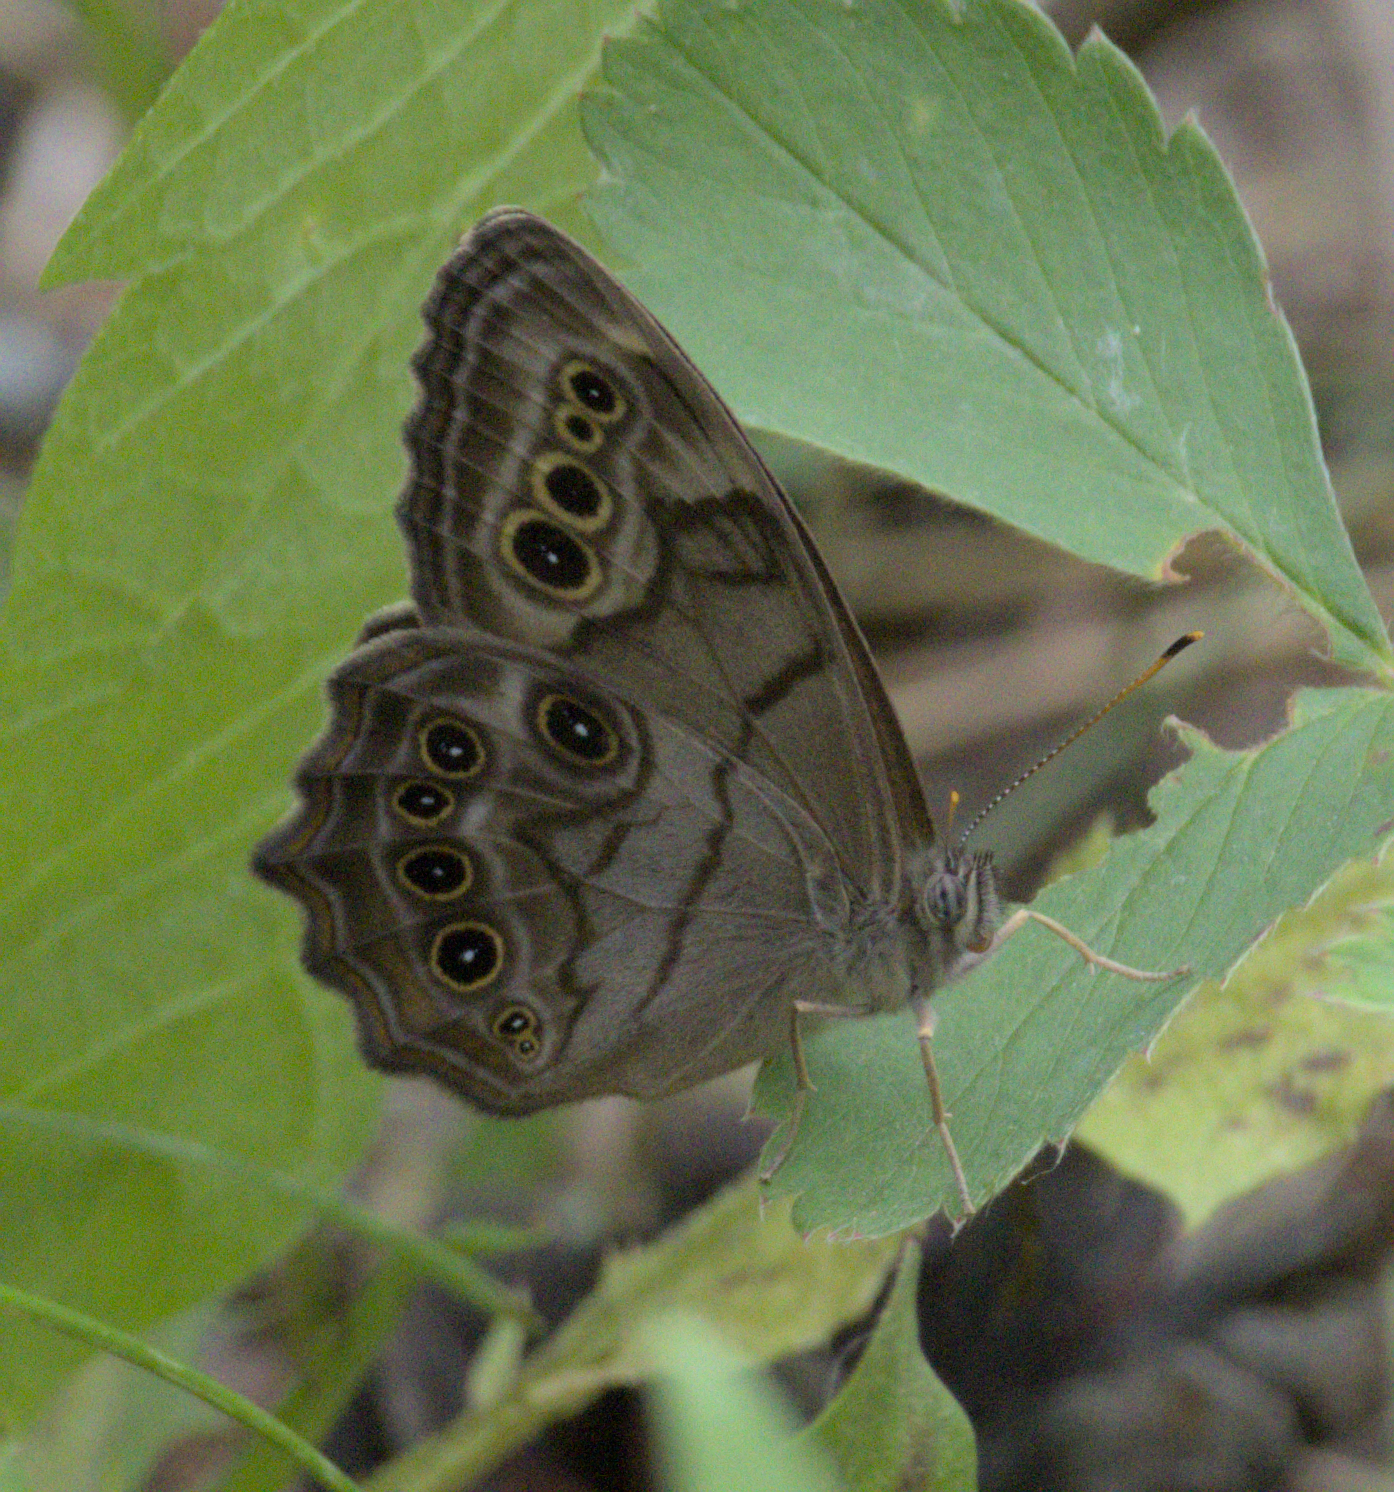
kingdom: Animalia
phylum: Arthropoda
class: Insecta
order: Lepidoptera
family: Nymphalidae
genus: Lethe
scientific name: Lethe anthedon
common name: Northern pearly-eye
